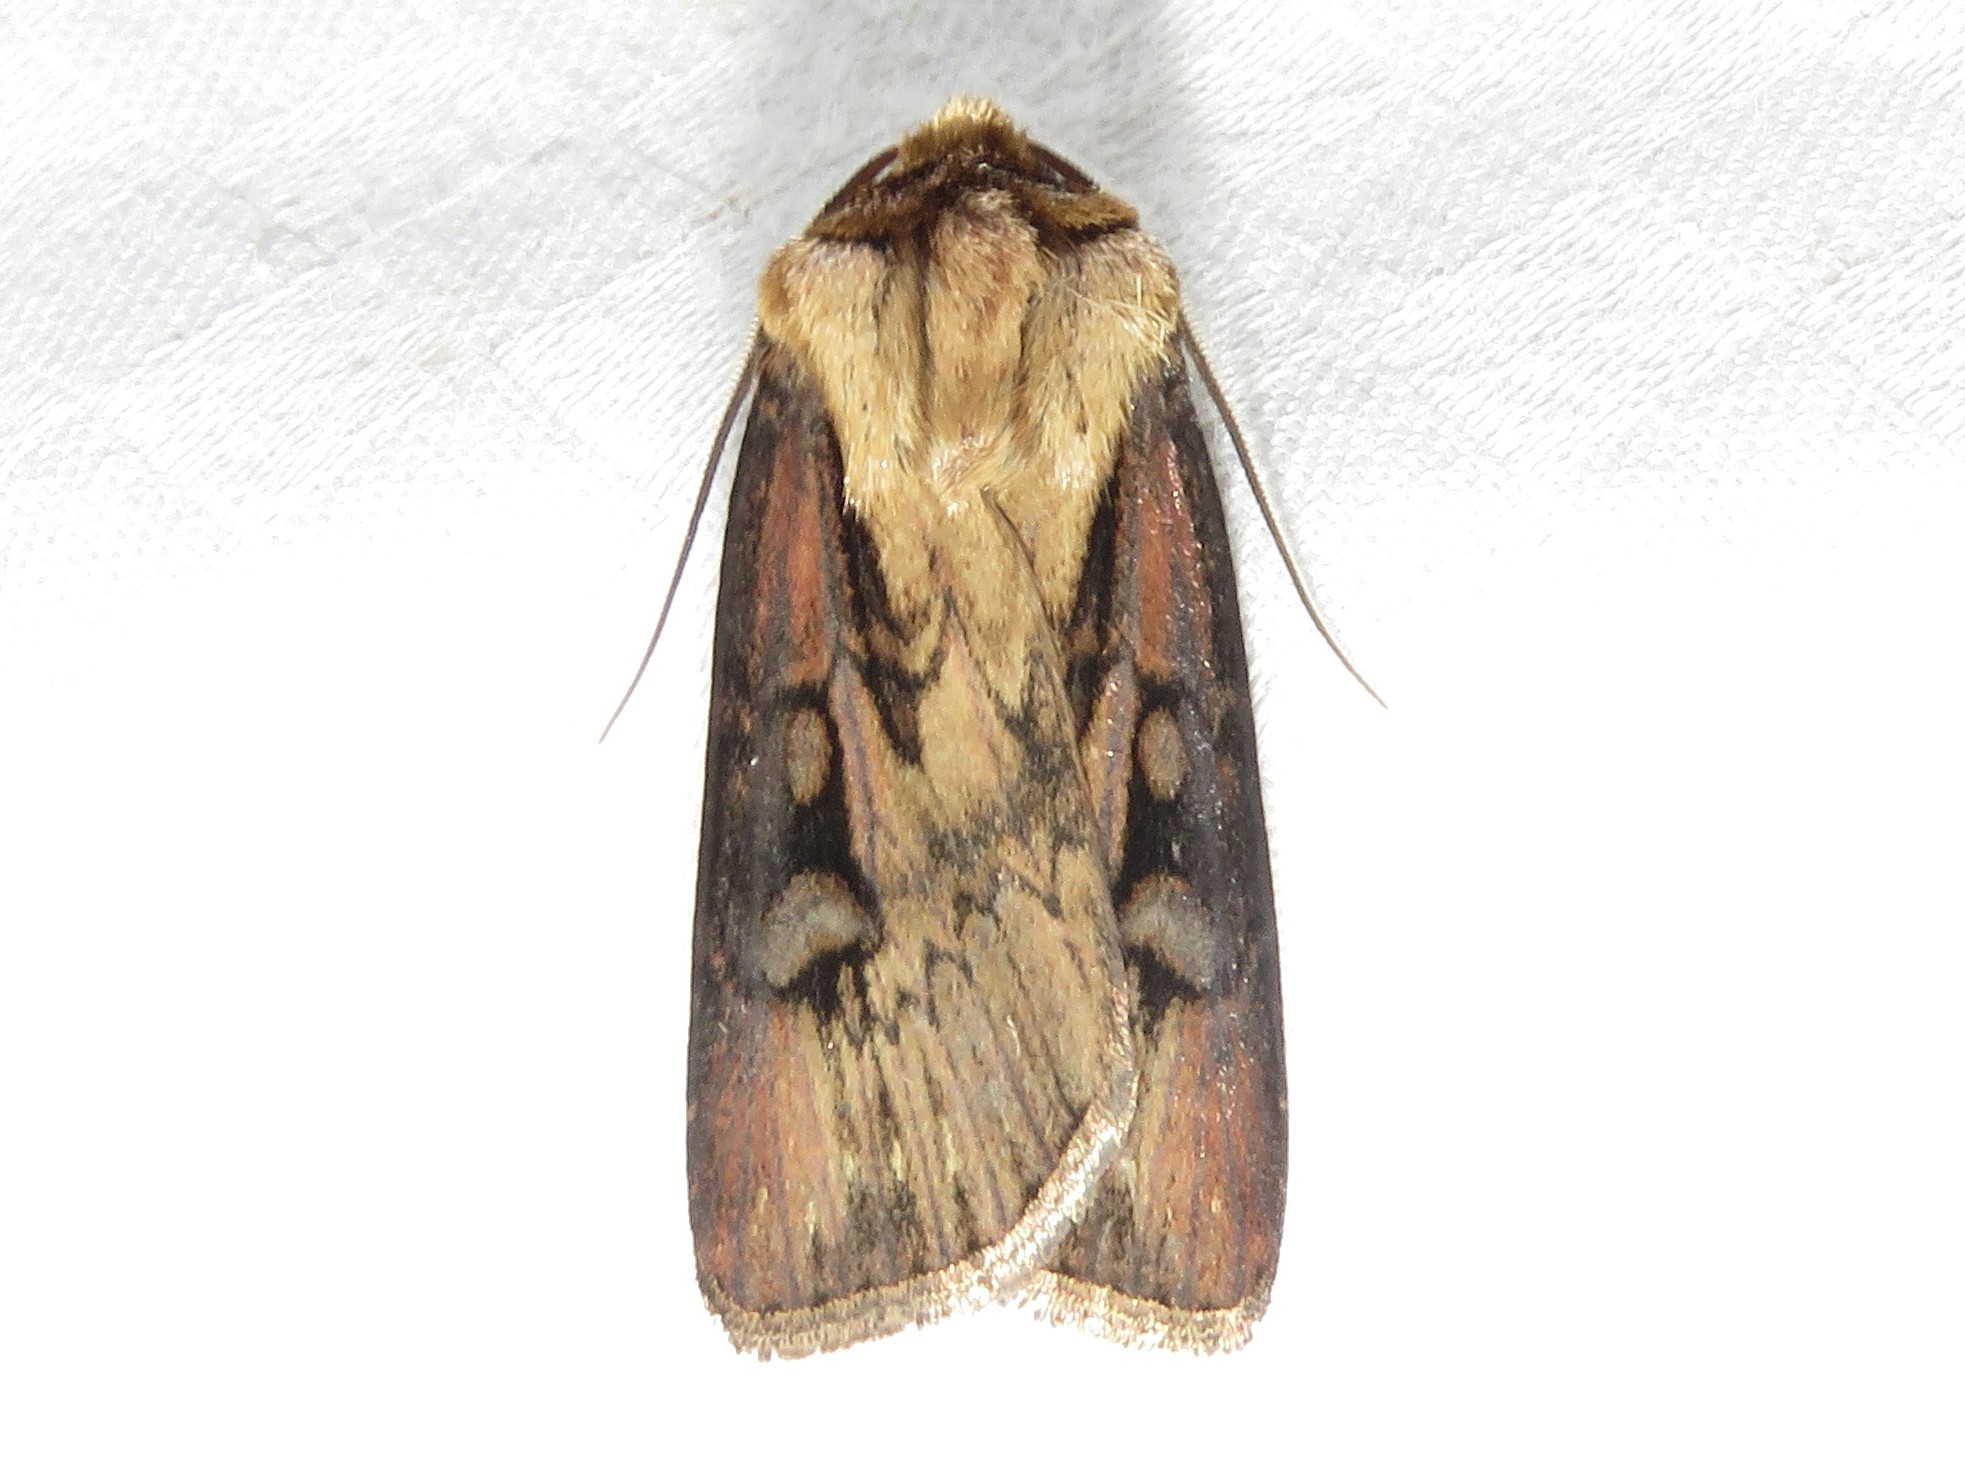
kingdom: Animalia
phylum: Arthropoda
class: Insecta
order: Lepidoptera
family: Noctuidae
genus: Agrotis
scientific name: Agrotis obliqua
